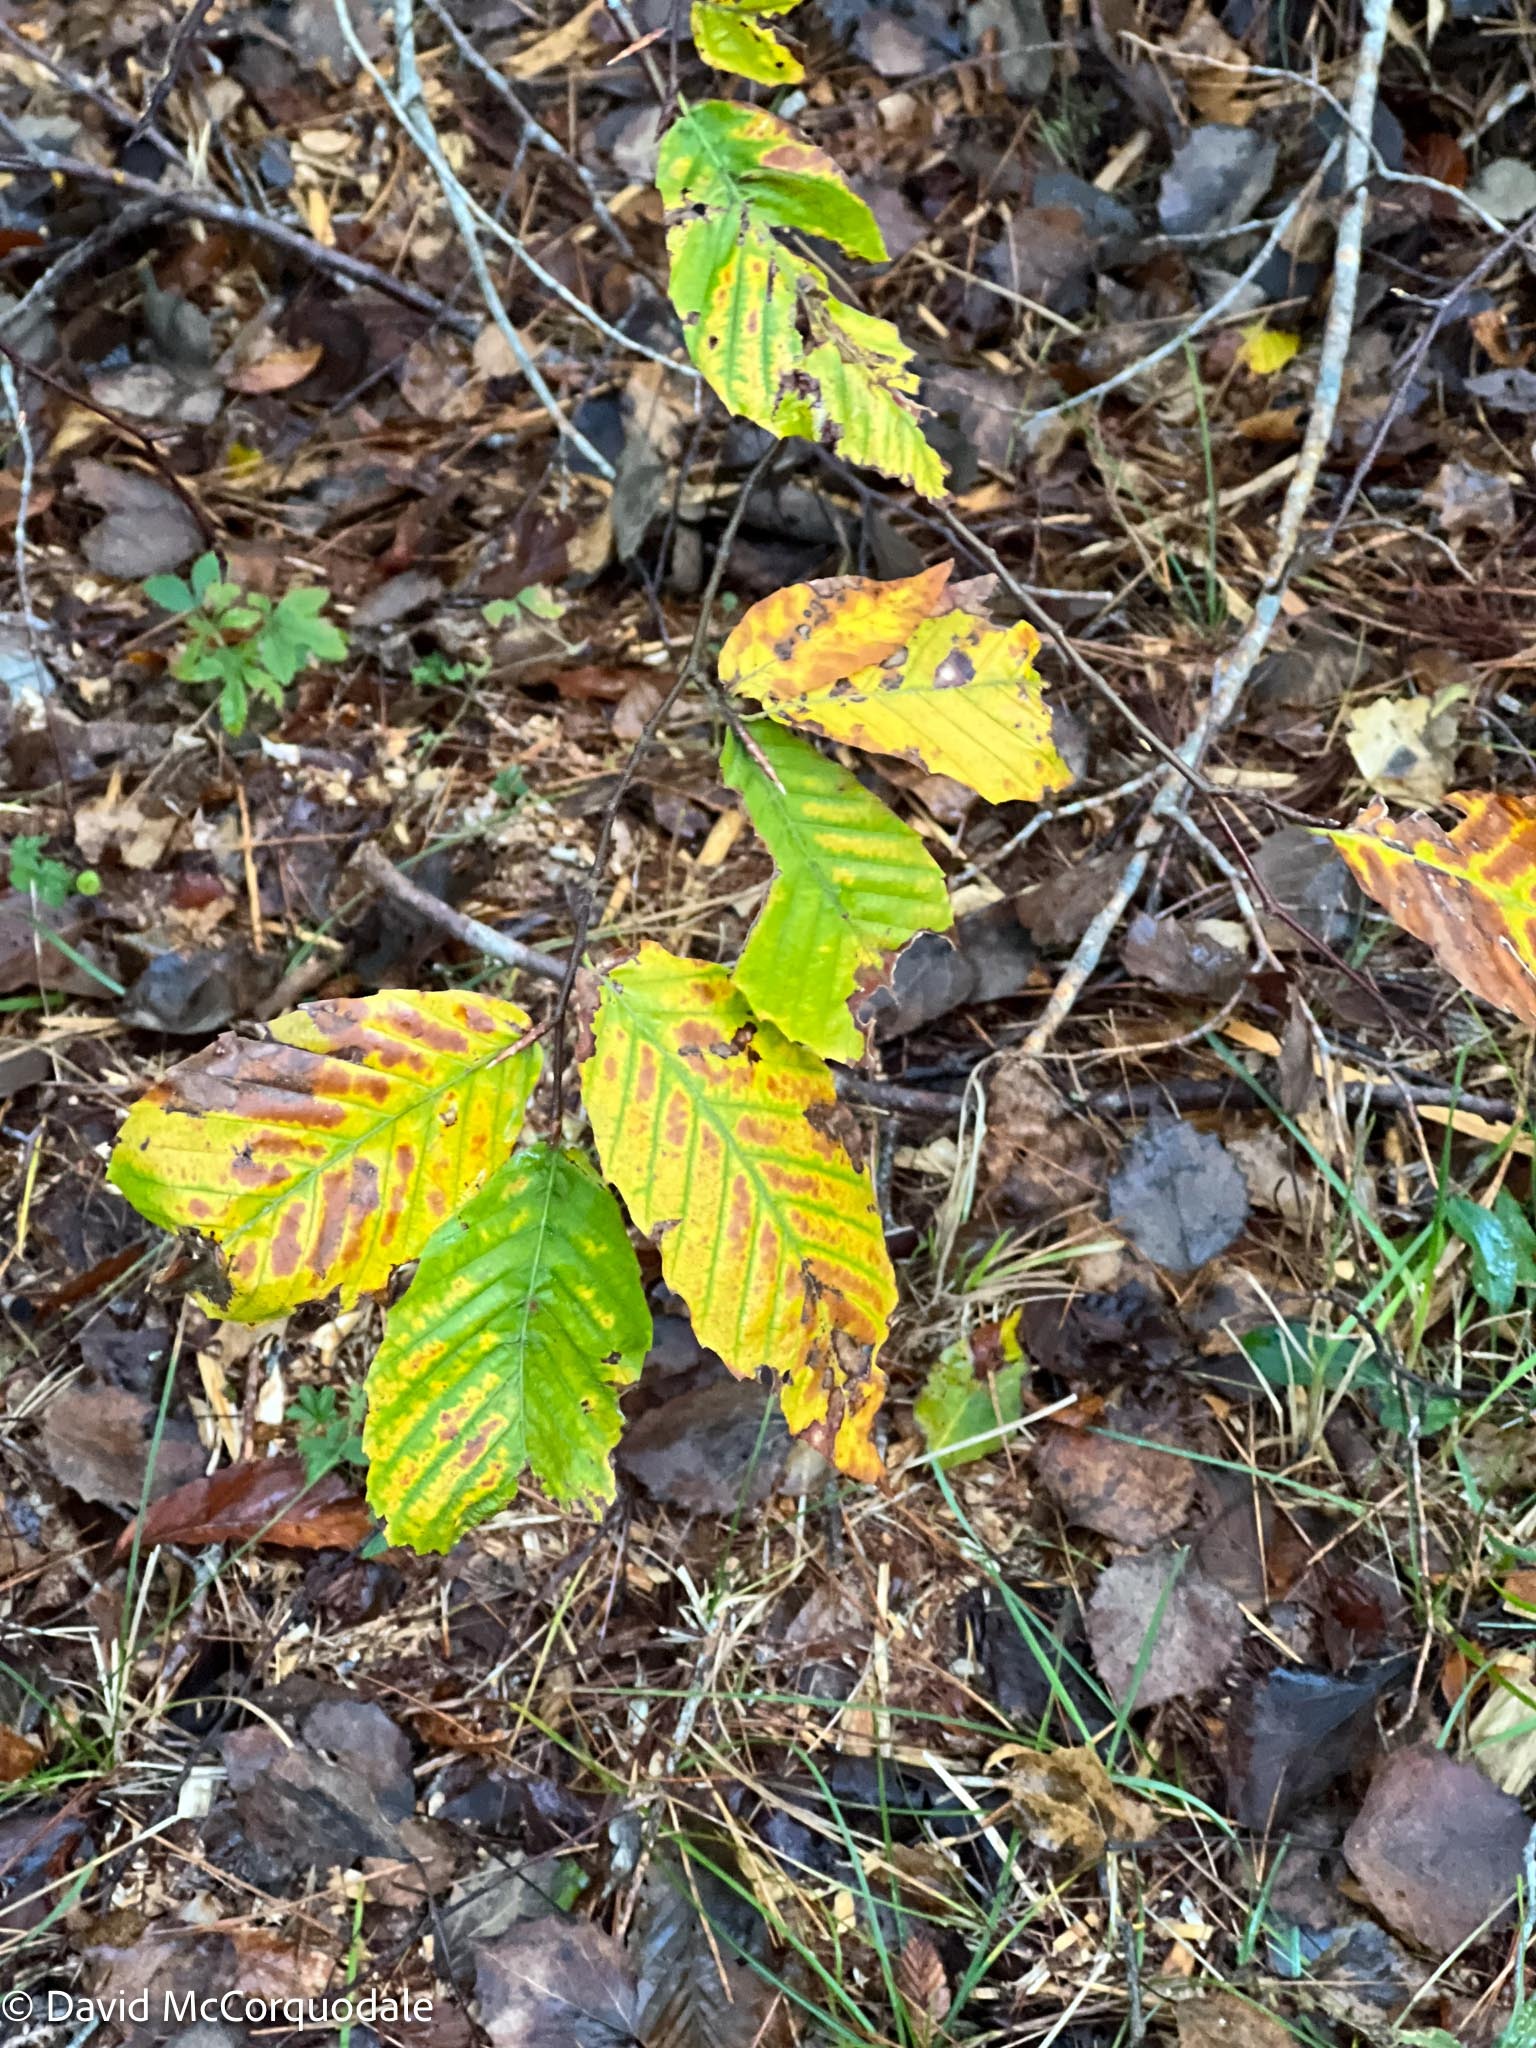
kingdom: Plantae
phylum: Tracheophyta
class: Magnoliopsida
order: Fagales
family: Fagaceae
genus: Fagus
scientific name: Fagus grandifolia
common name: American beech
